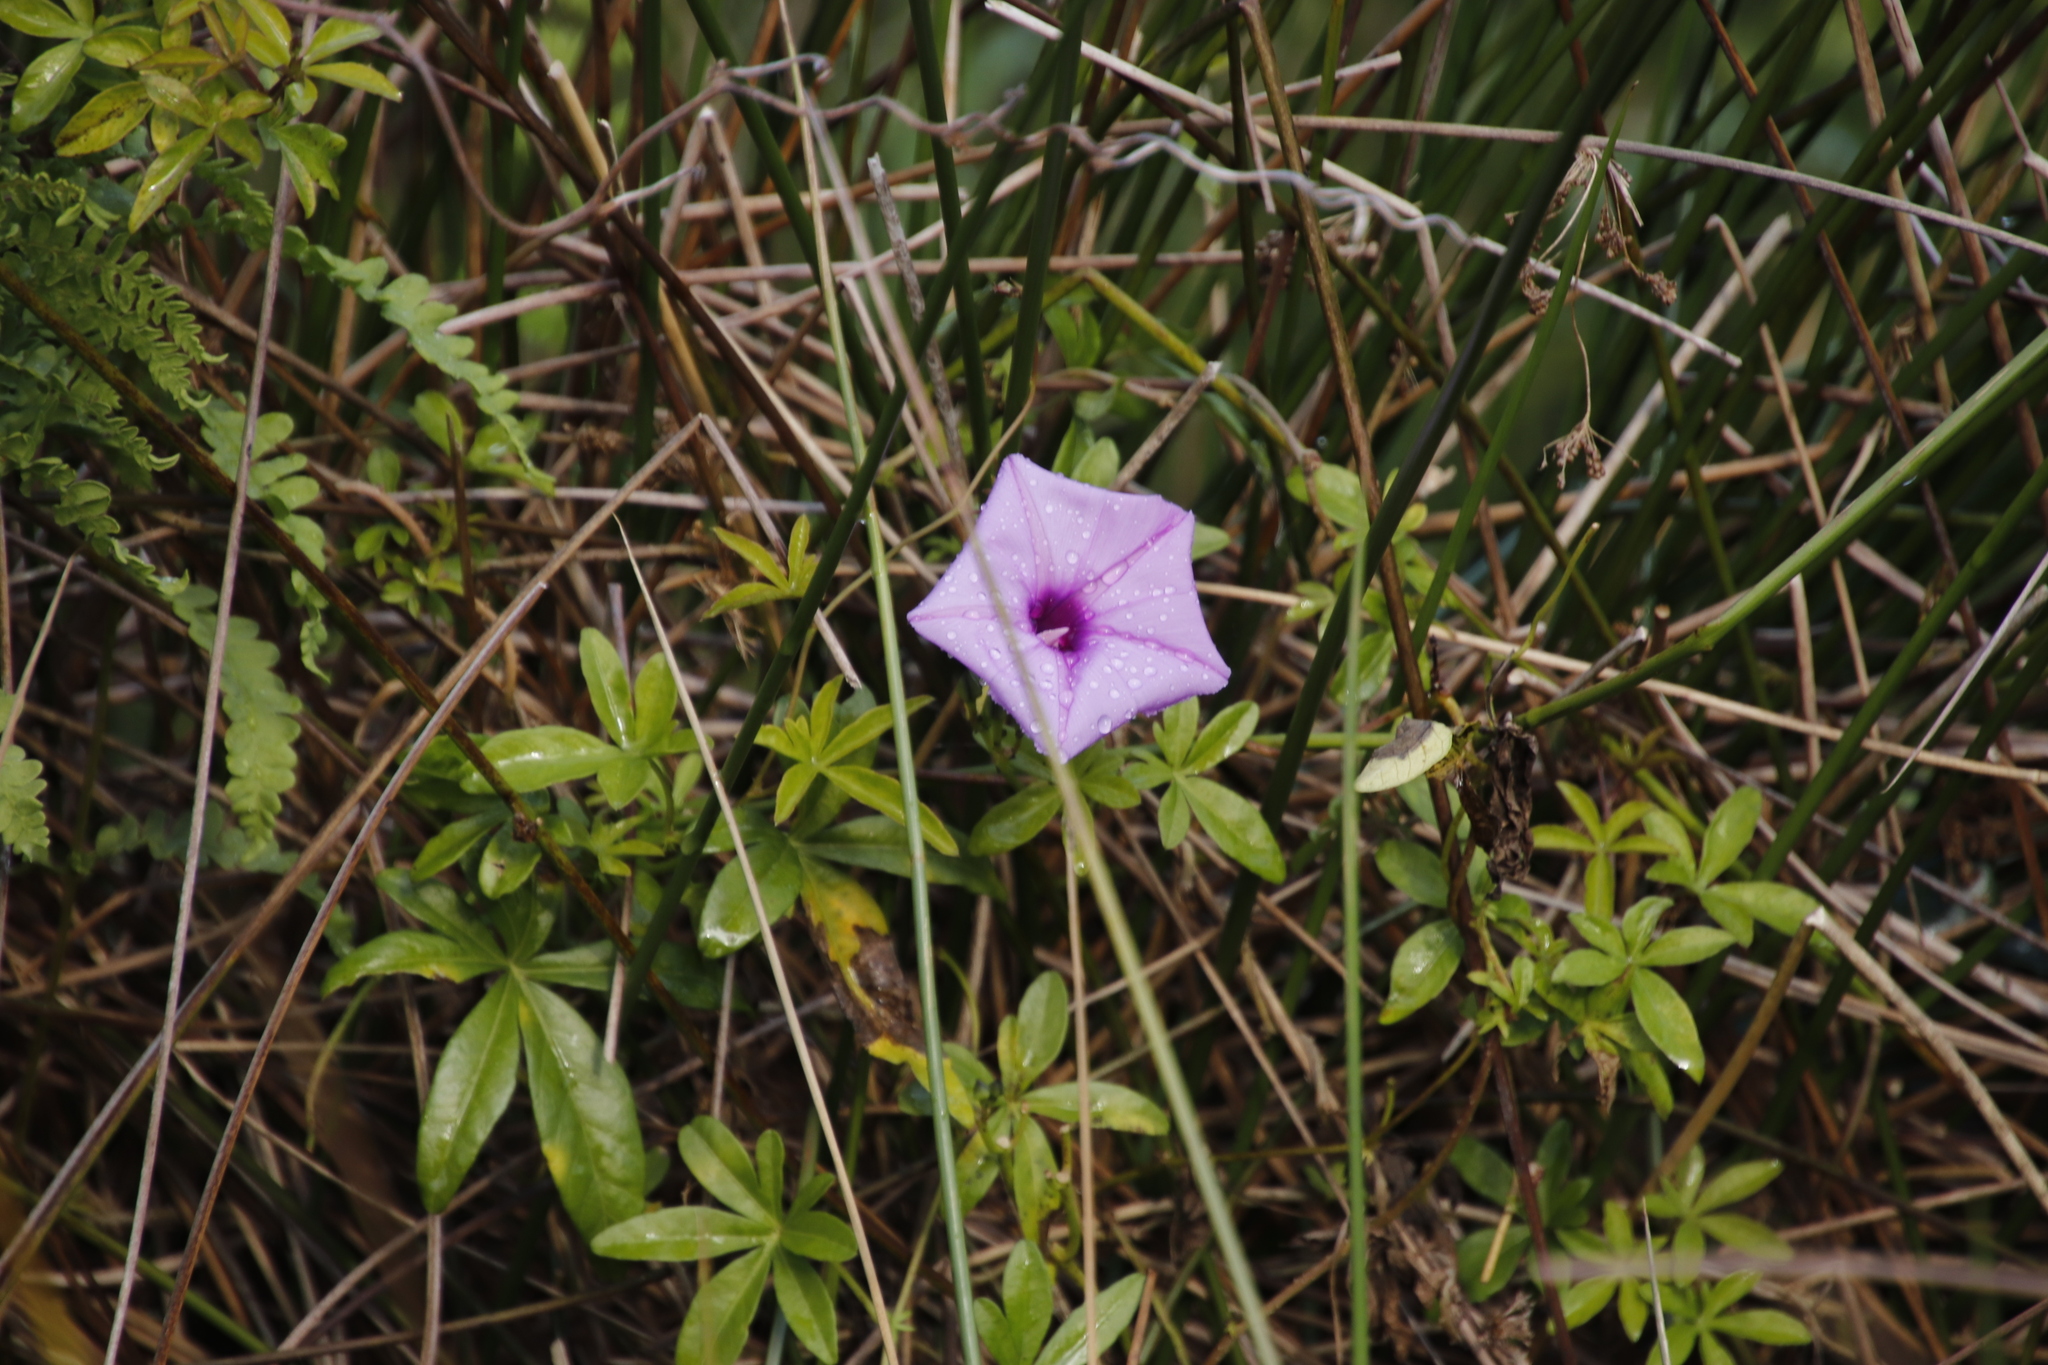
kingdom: Plantae
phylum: Tracheophyta
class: Magnoliopsida
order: Solanales
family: Convolvulaceae
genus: Ipomoea
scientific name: Ipomoea cairica
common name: Mile a minute vine
